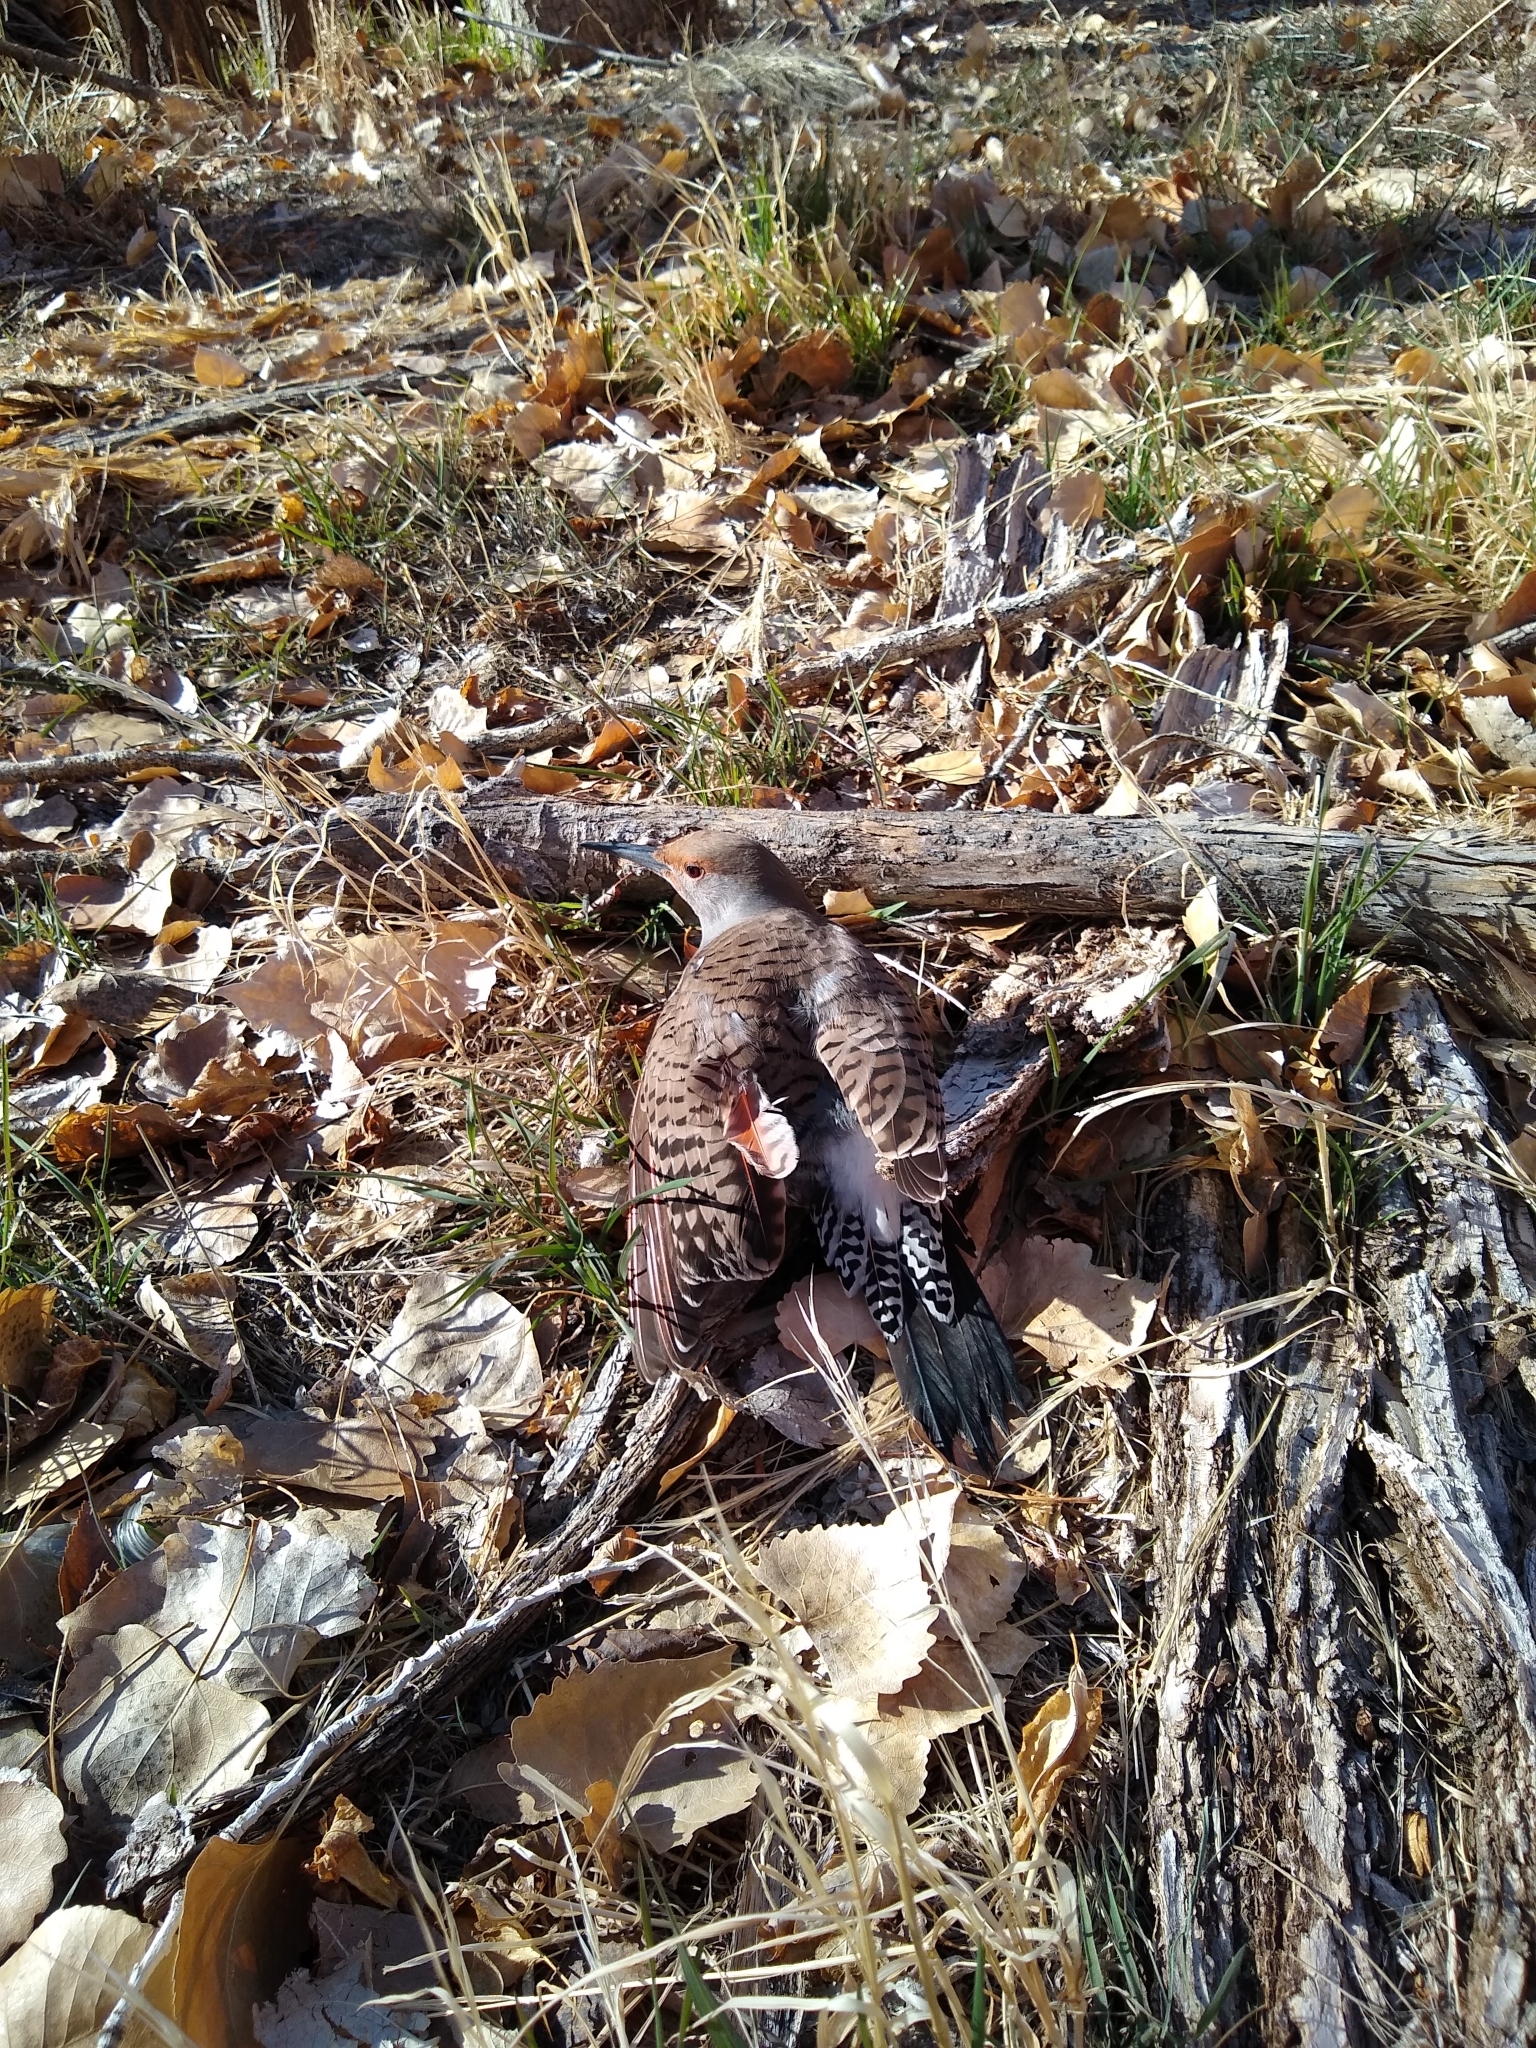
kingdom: Animalia
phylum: Chordata
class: Aves
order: Piciformes
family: Picidae
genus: Colaptes
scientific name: Colaptes auratus
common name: Northern flicker
